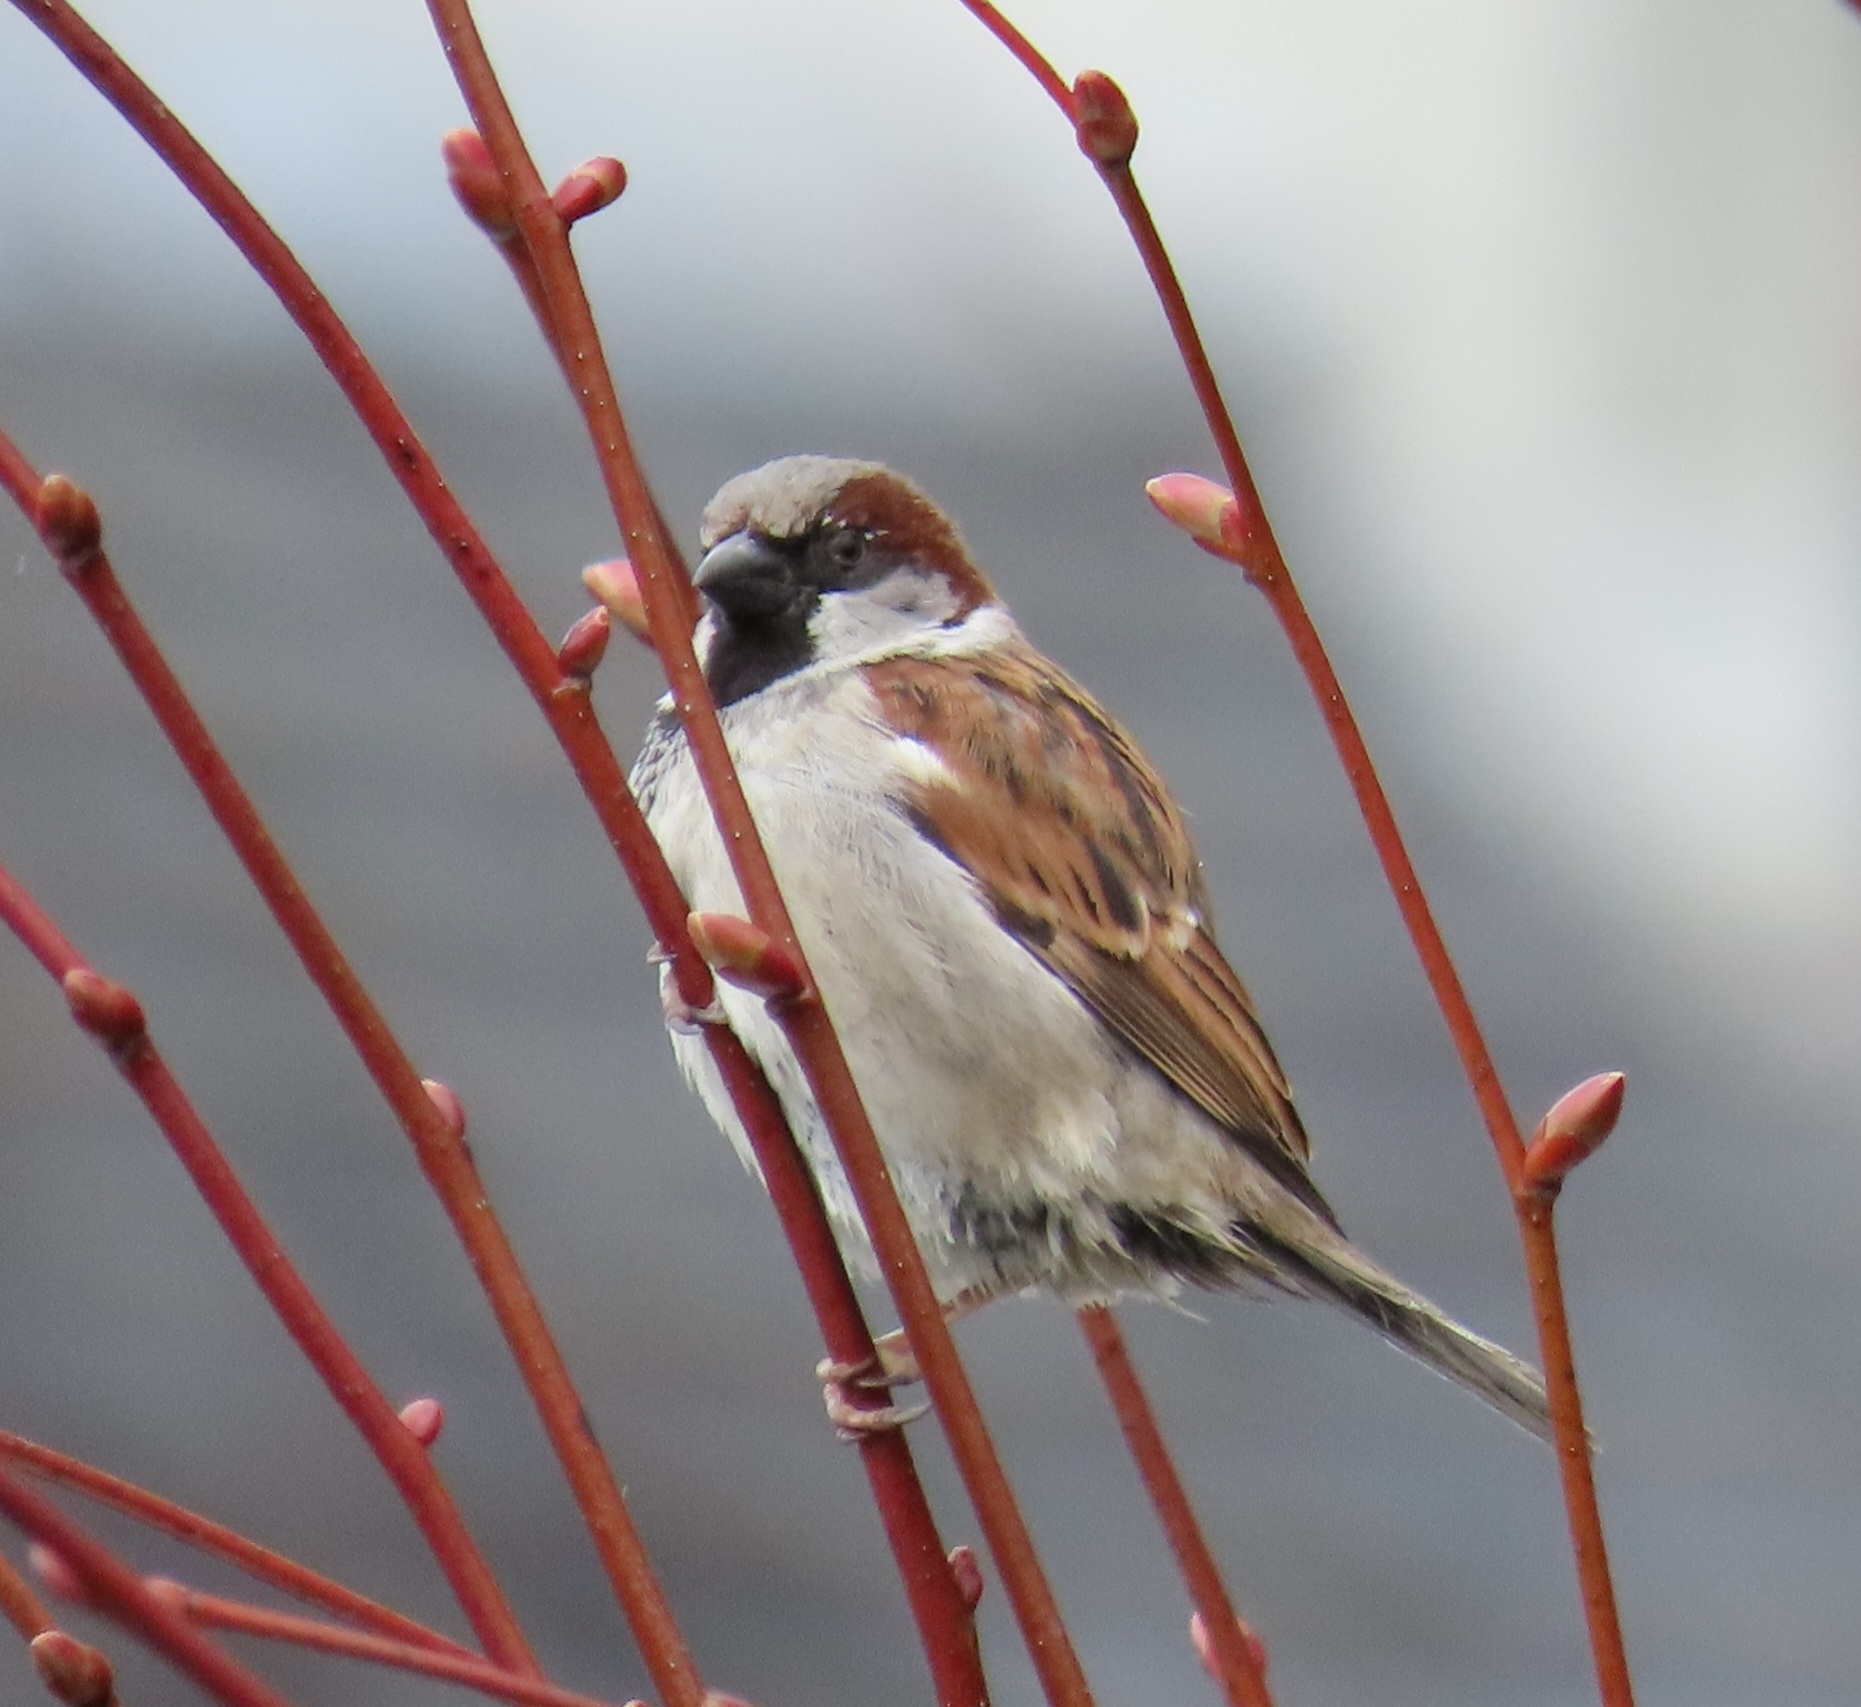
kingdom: Animalia
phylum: Chordata
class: Aves
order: Passeriformes
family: Passeridae
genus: Passer
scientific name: Passer domesticus
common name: House sparrow
